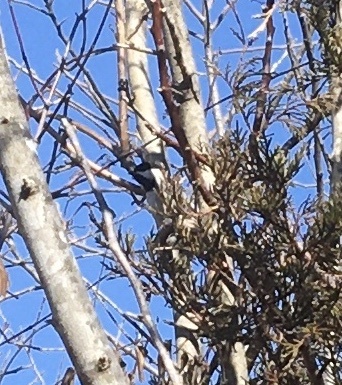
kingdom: Animalia
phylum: Chordata
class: Aves
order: Passeriformes
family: Paridae
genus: Poecile
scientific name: Poecile carolinensis
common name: Carolina chickadee
